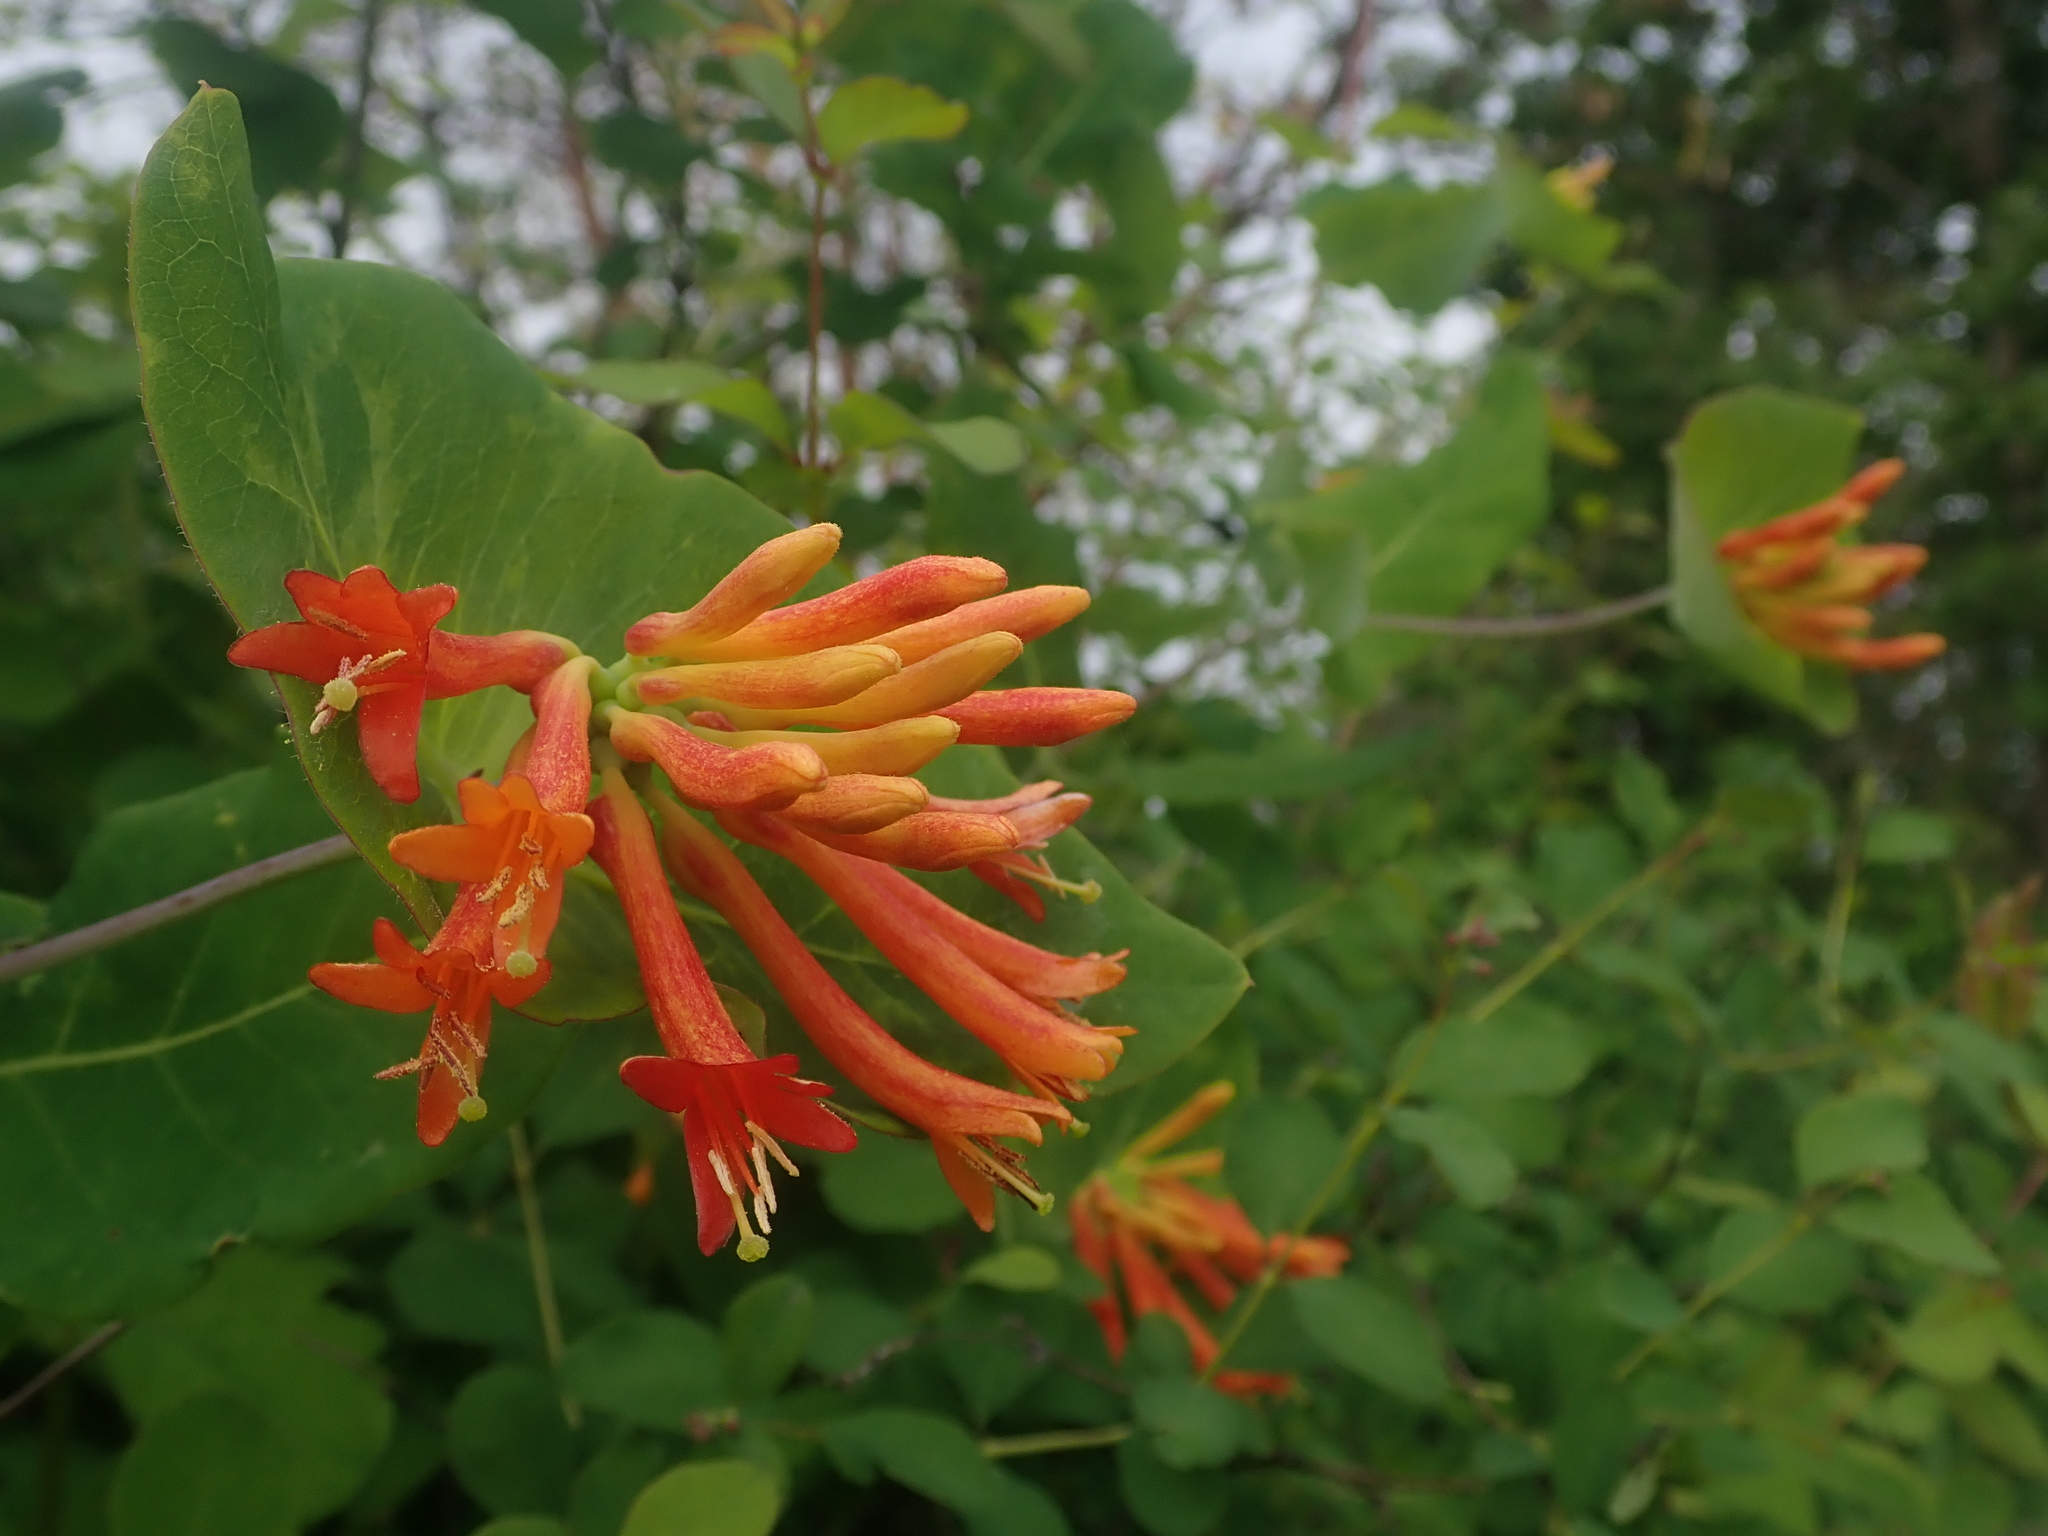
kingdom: Plantae
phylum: Tracheophyta
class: Magnoliopsida
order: Dipsacales
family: Caprifoliaceae
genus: Lonicera
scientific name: Lonicera ciliosa
